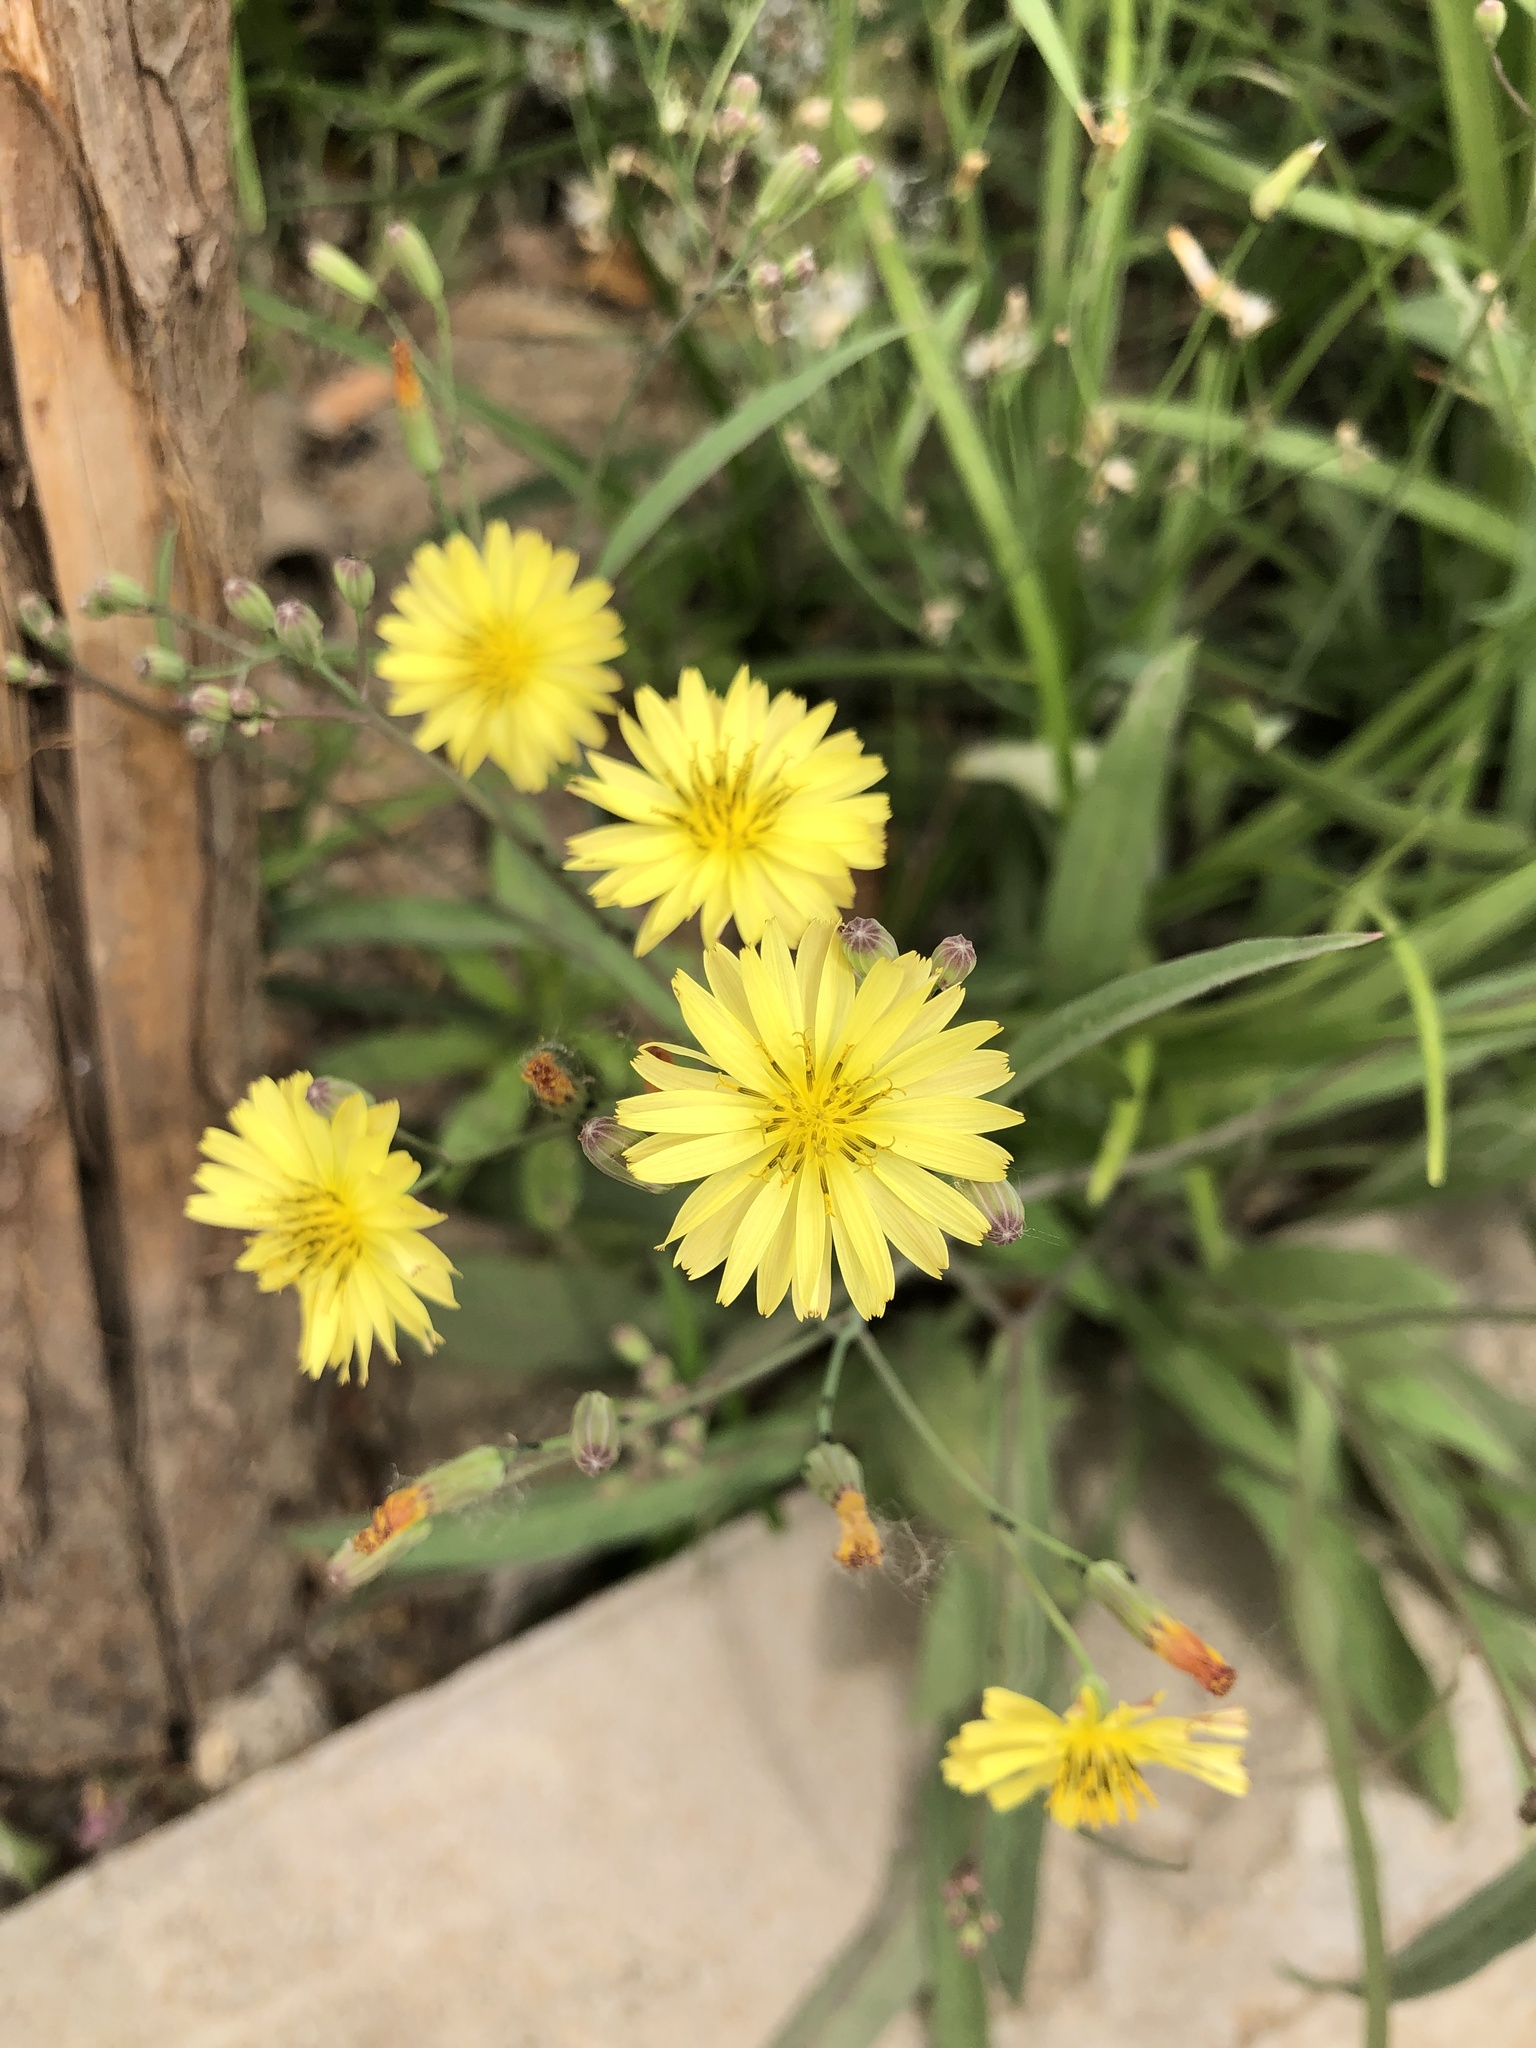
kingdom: Plantae
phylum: Tracheophyta
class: Magnoliopsida
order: Asterales
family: Asteraceae
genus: Ixeris
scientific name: Ixeris chinensis
